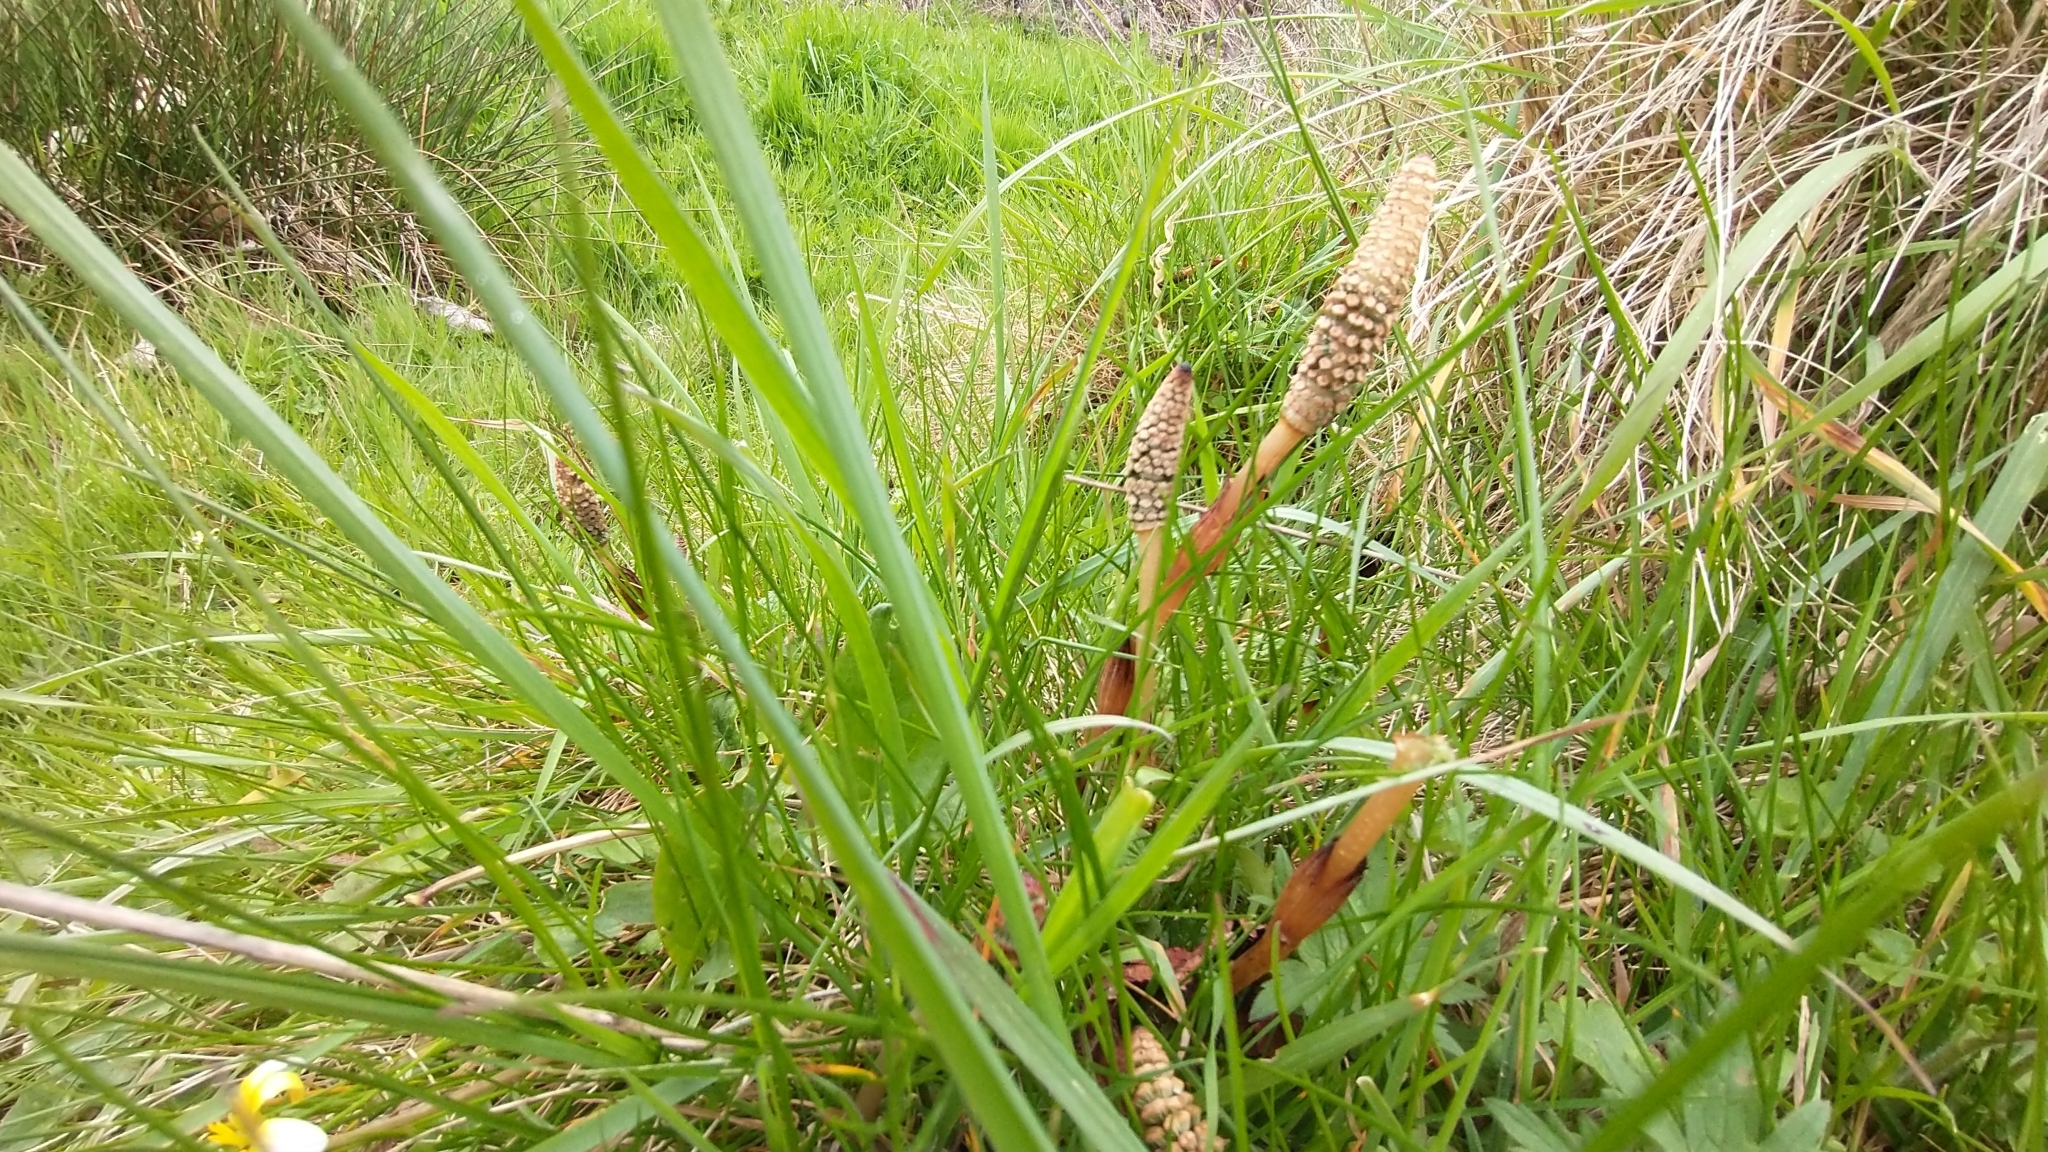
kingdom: Plantae
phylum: Tracheophyta
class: Polypodiopsida
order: Equisetales
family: Equisetaceae
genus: Equisetum
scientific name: Equisetum arvense
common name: Field horsetail
